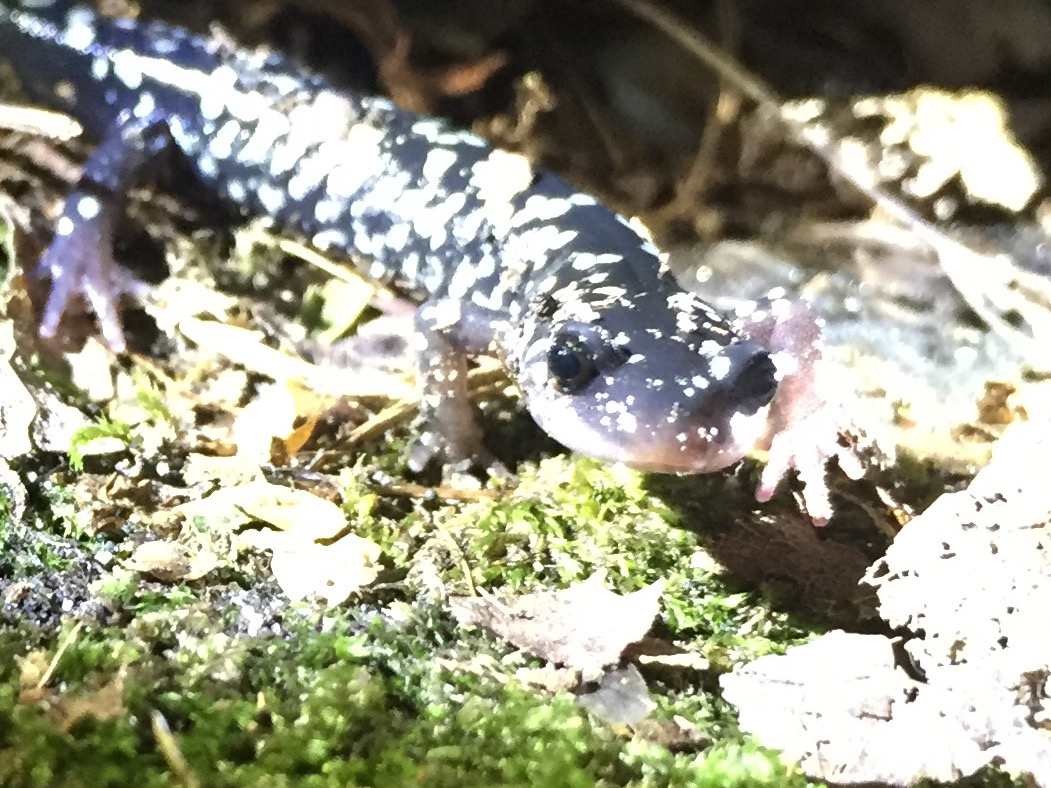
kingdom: Animalia
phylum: Chordata
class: Amphibia
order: Caudata
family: Plethodontidae
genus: Plethodon
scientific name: Plethodon glutinosus
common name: Northern slimy salamander
